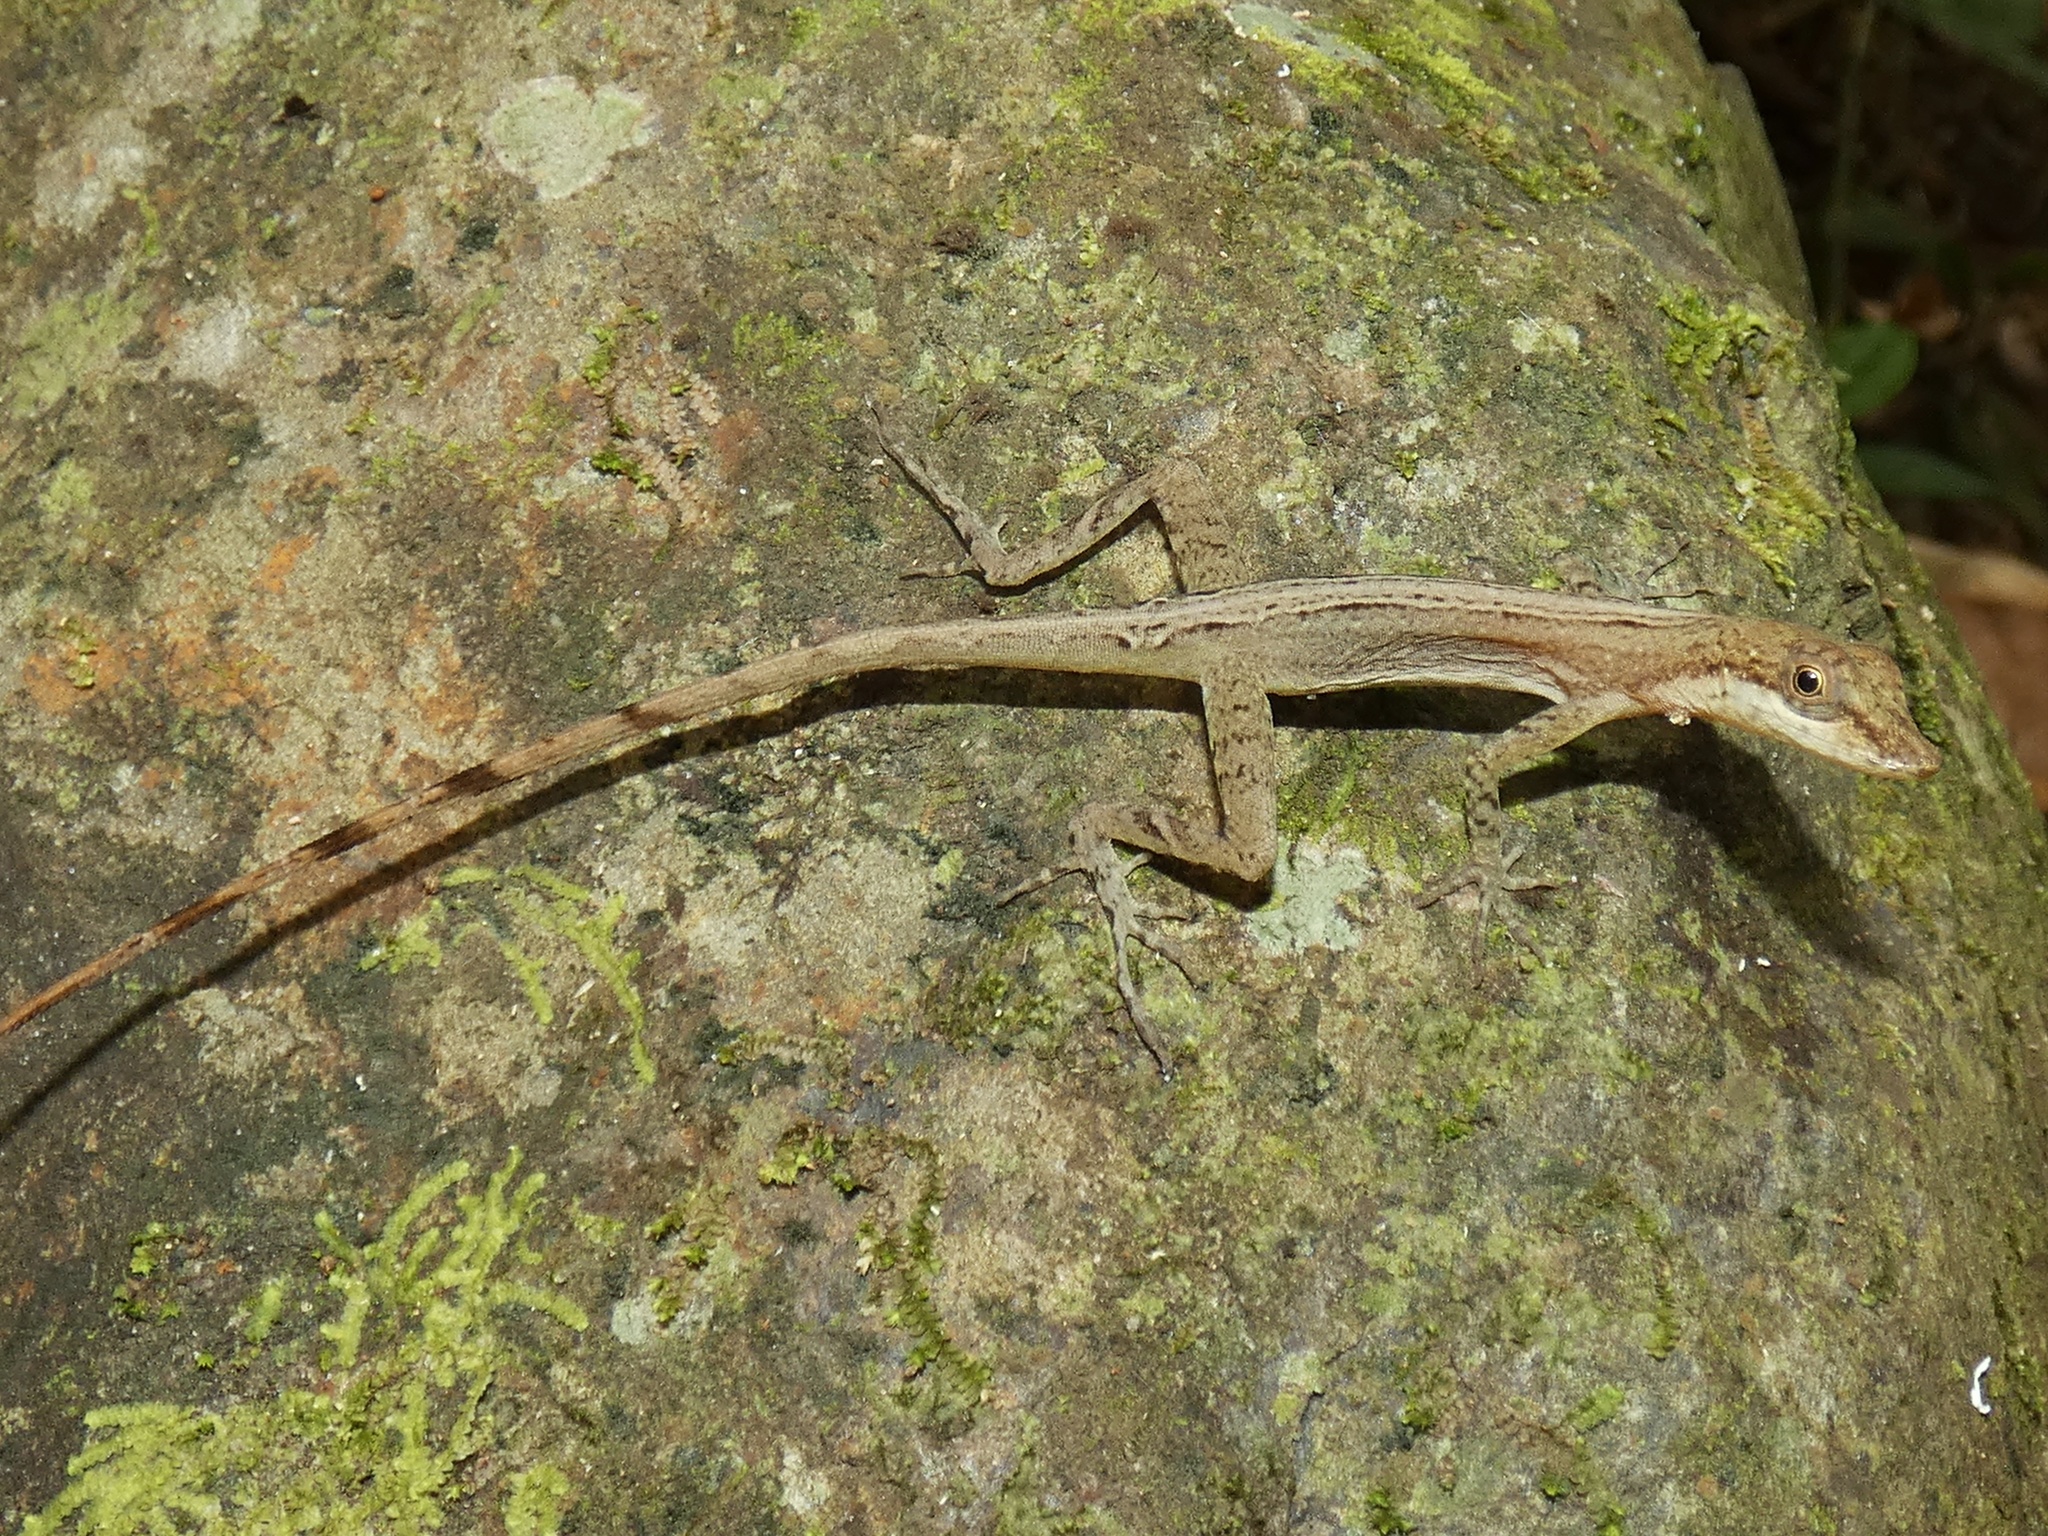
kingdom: Animalia
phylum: Chordata
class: Squamata
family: Dactyloidae
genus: Anolis
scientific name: Anolis apletophallus
